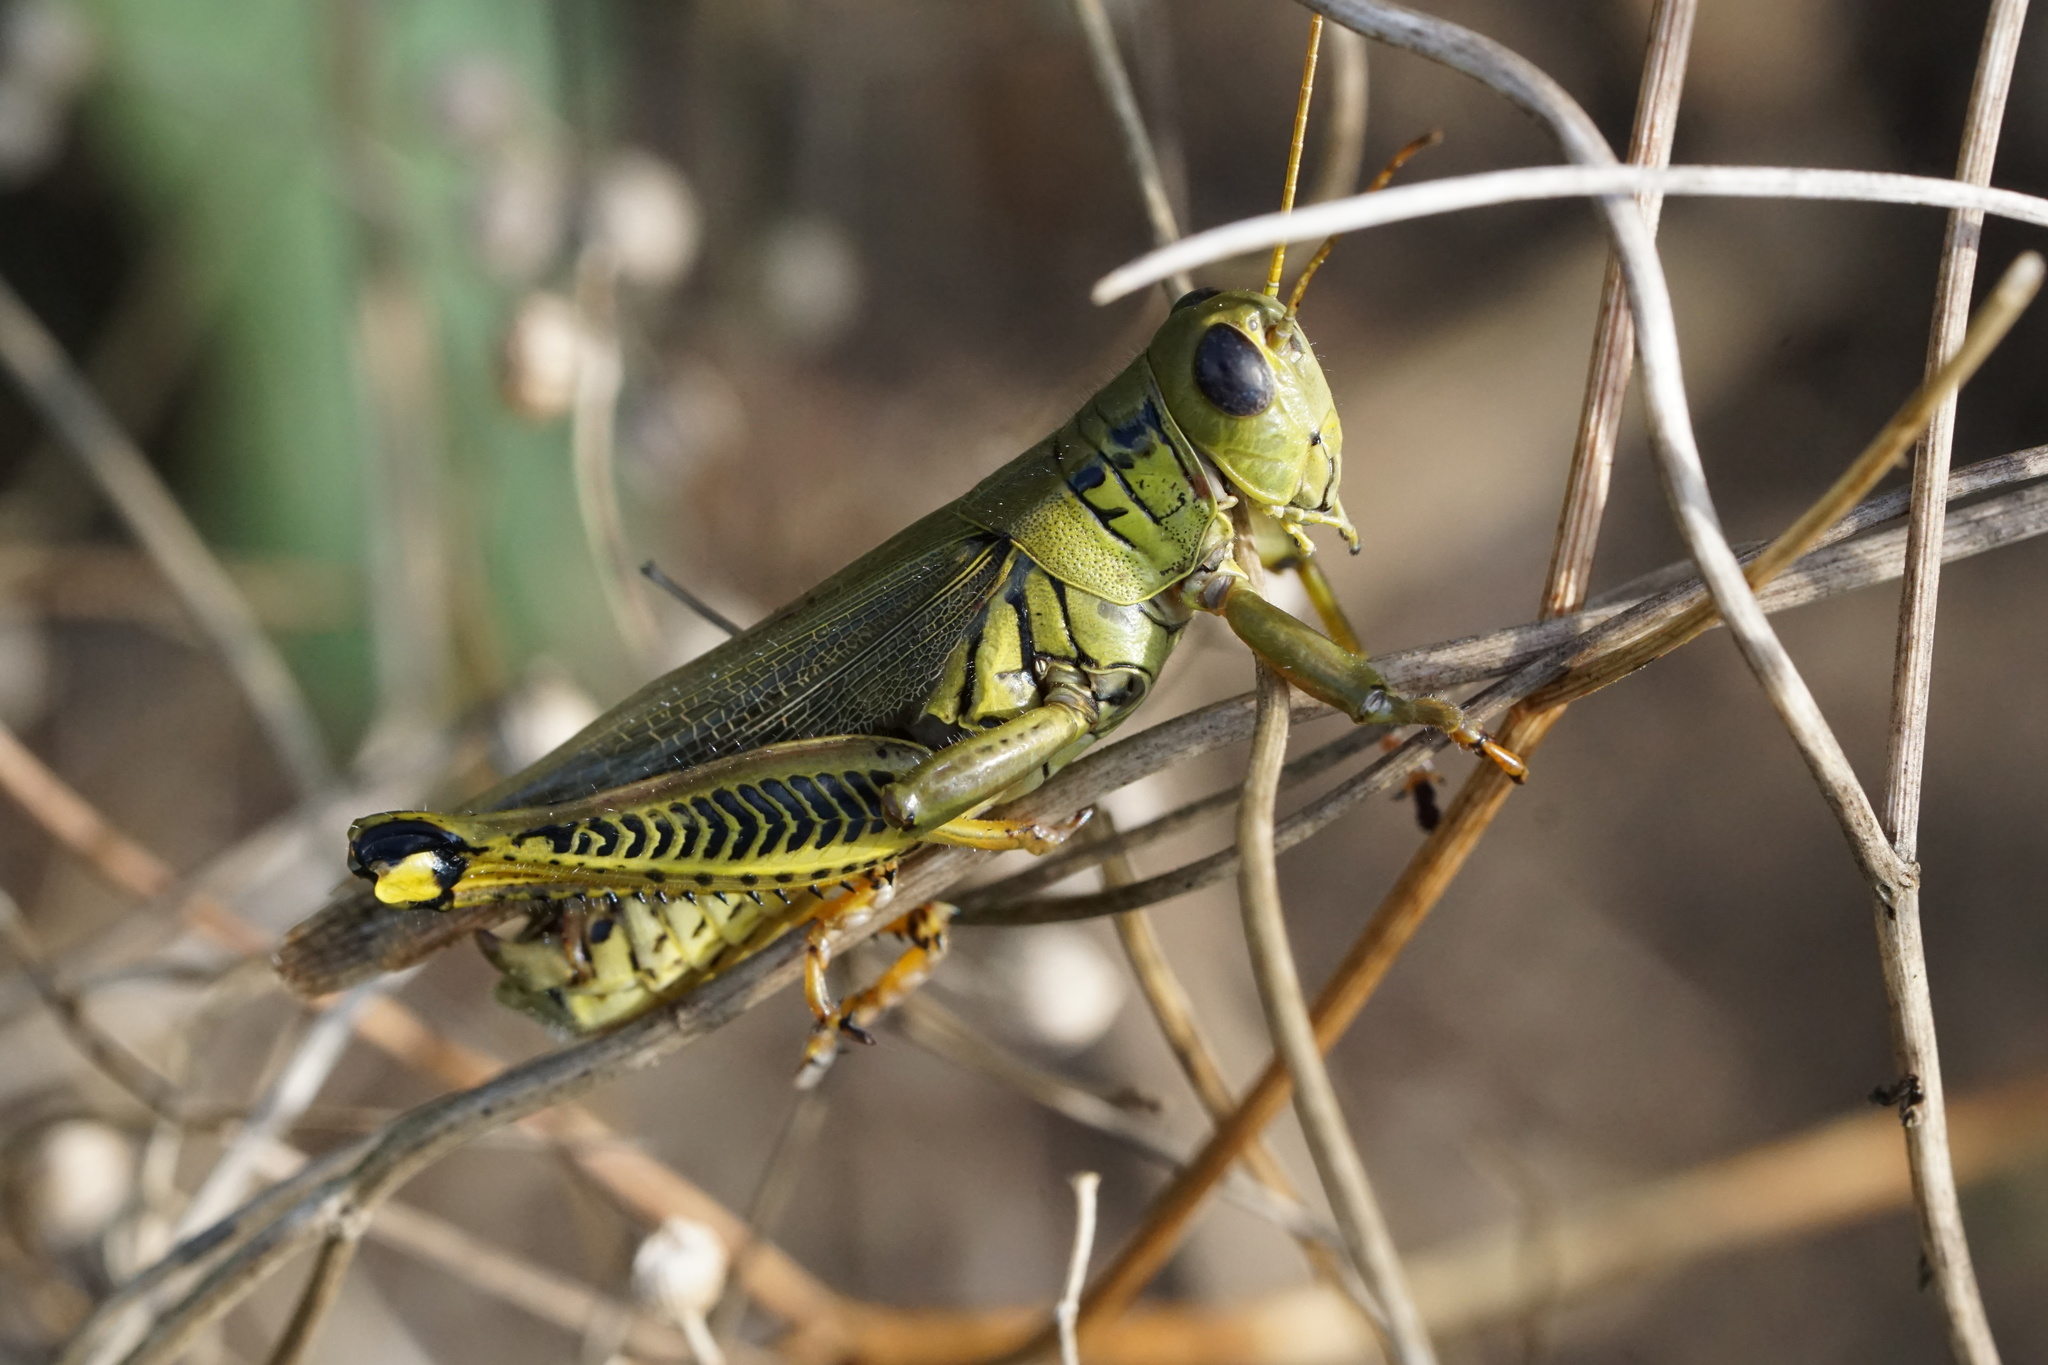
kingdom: Animalia
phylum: Arthropoda
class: Insecta
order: Orthoptera
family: Acrididae
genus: Melanoplus
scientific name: Melanoplus differentialis
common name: Differential grasshopper
